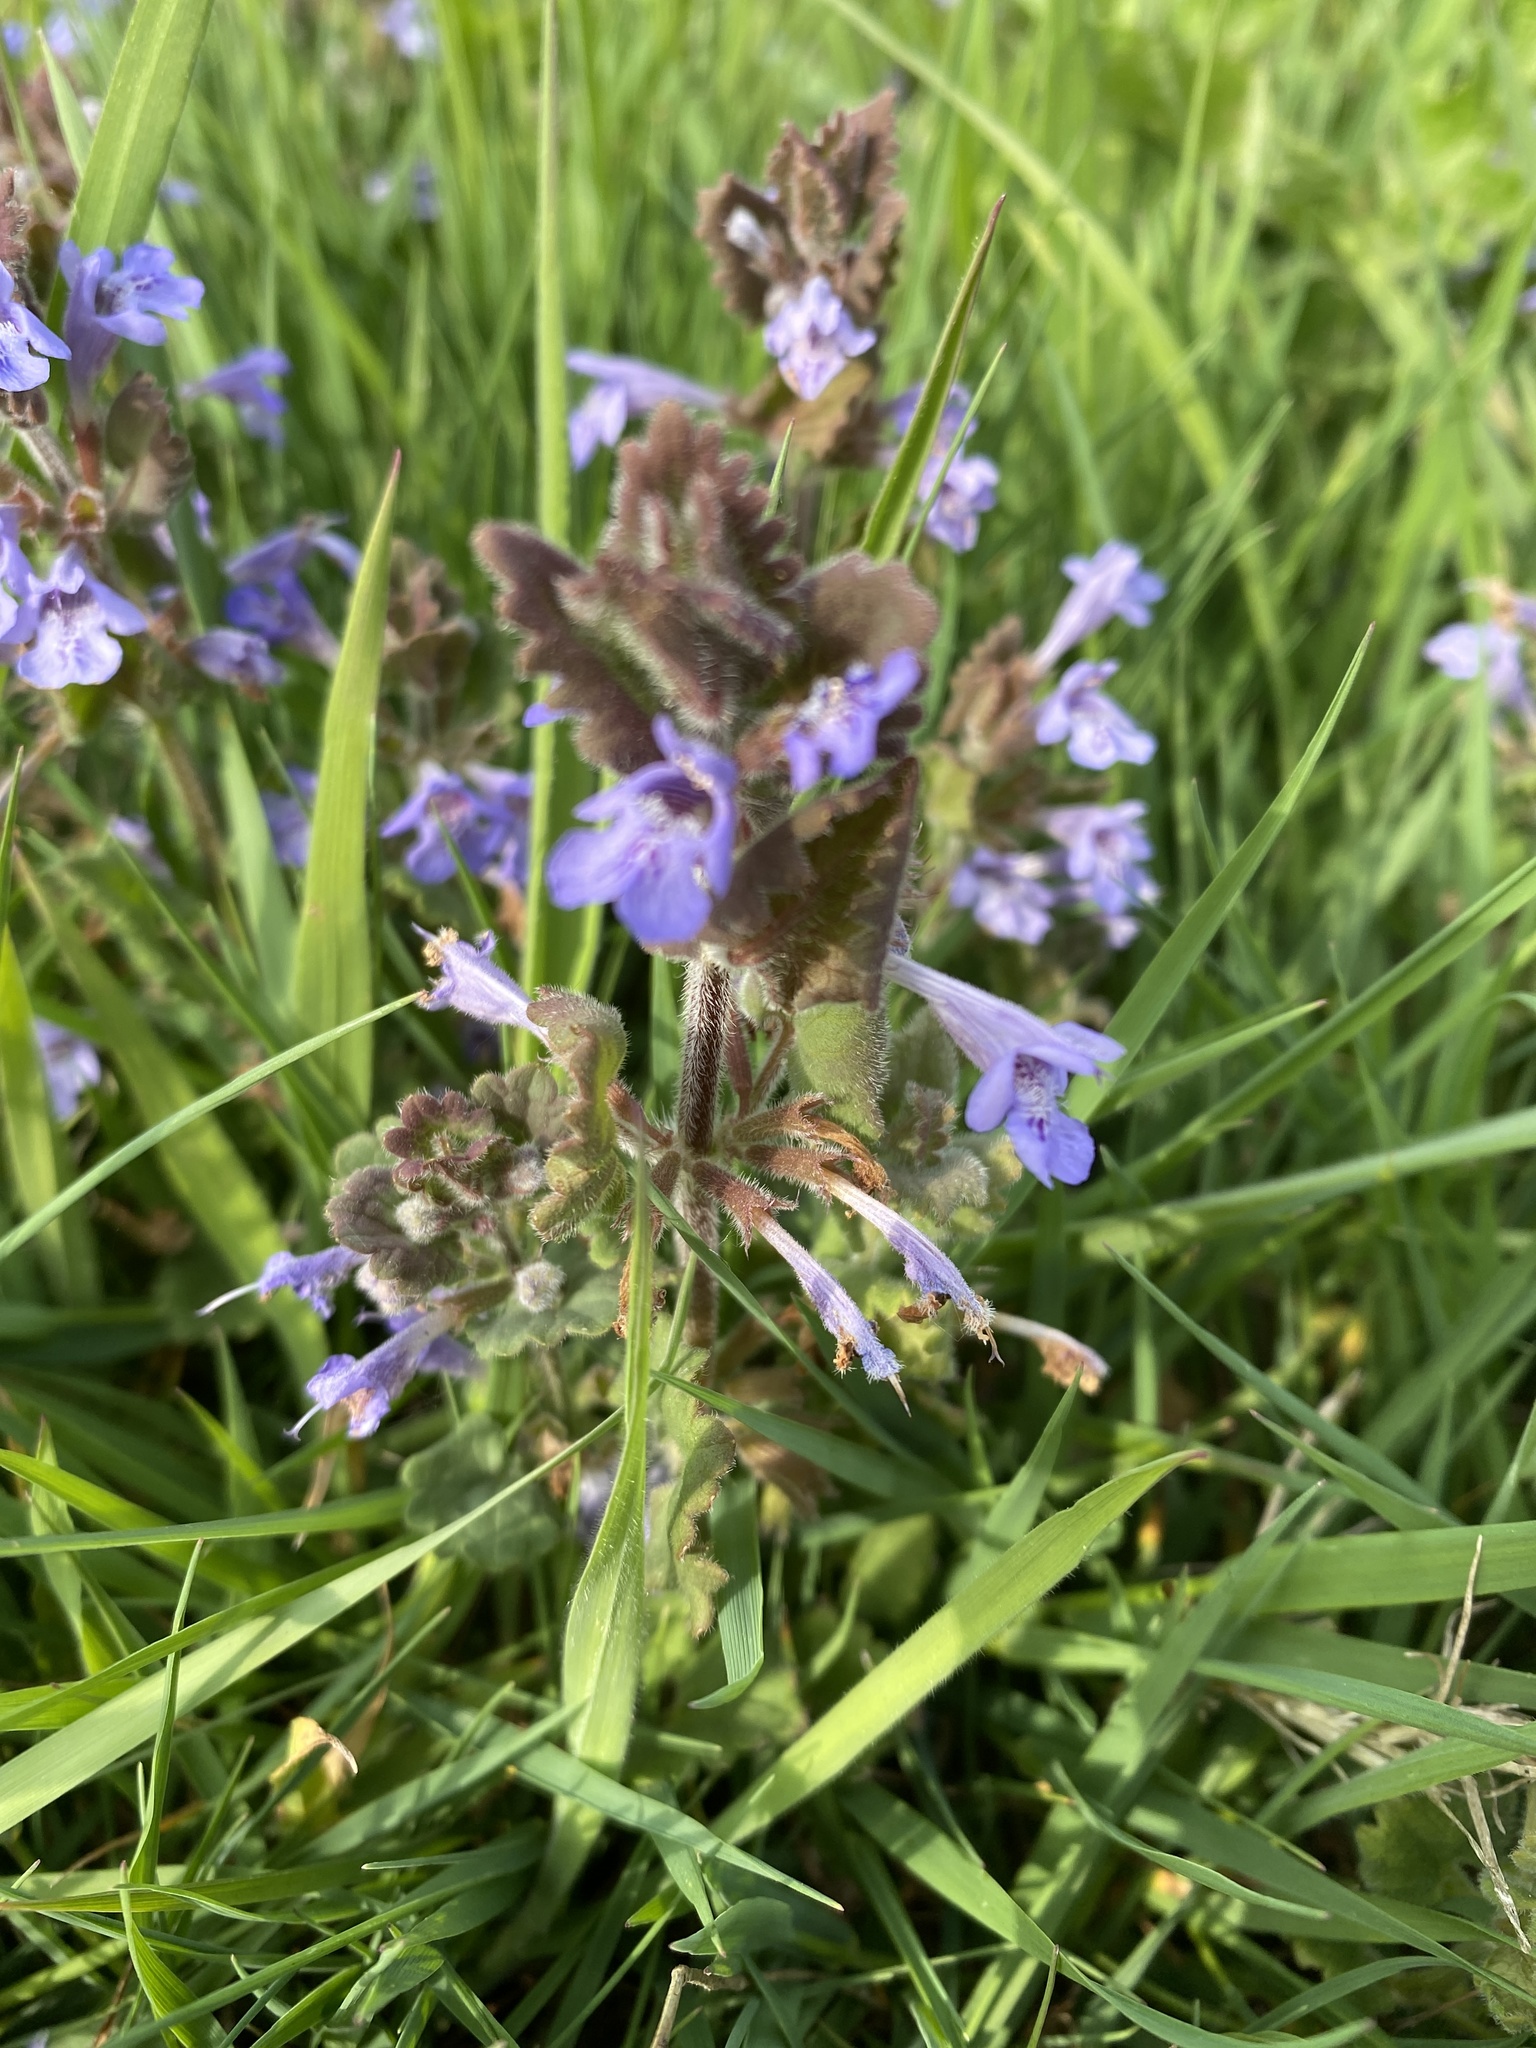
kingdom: Plantae
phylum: Tracheophyta
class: Magnoliopsida
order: Lamiales
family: Lamiaceae
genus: Glechoma
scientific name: Glechoma hederacea
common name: Ground ivy
